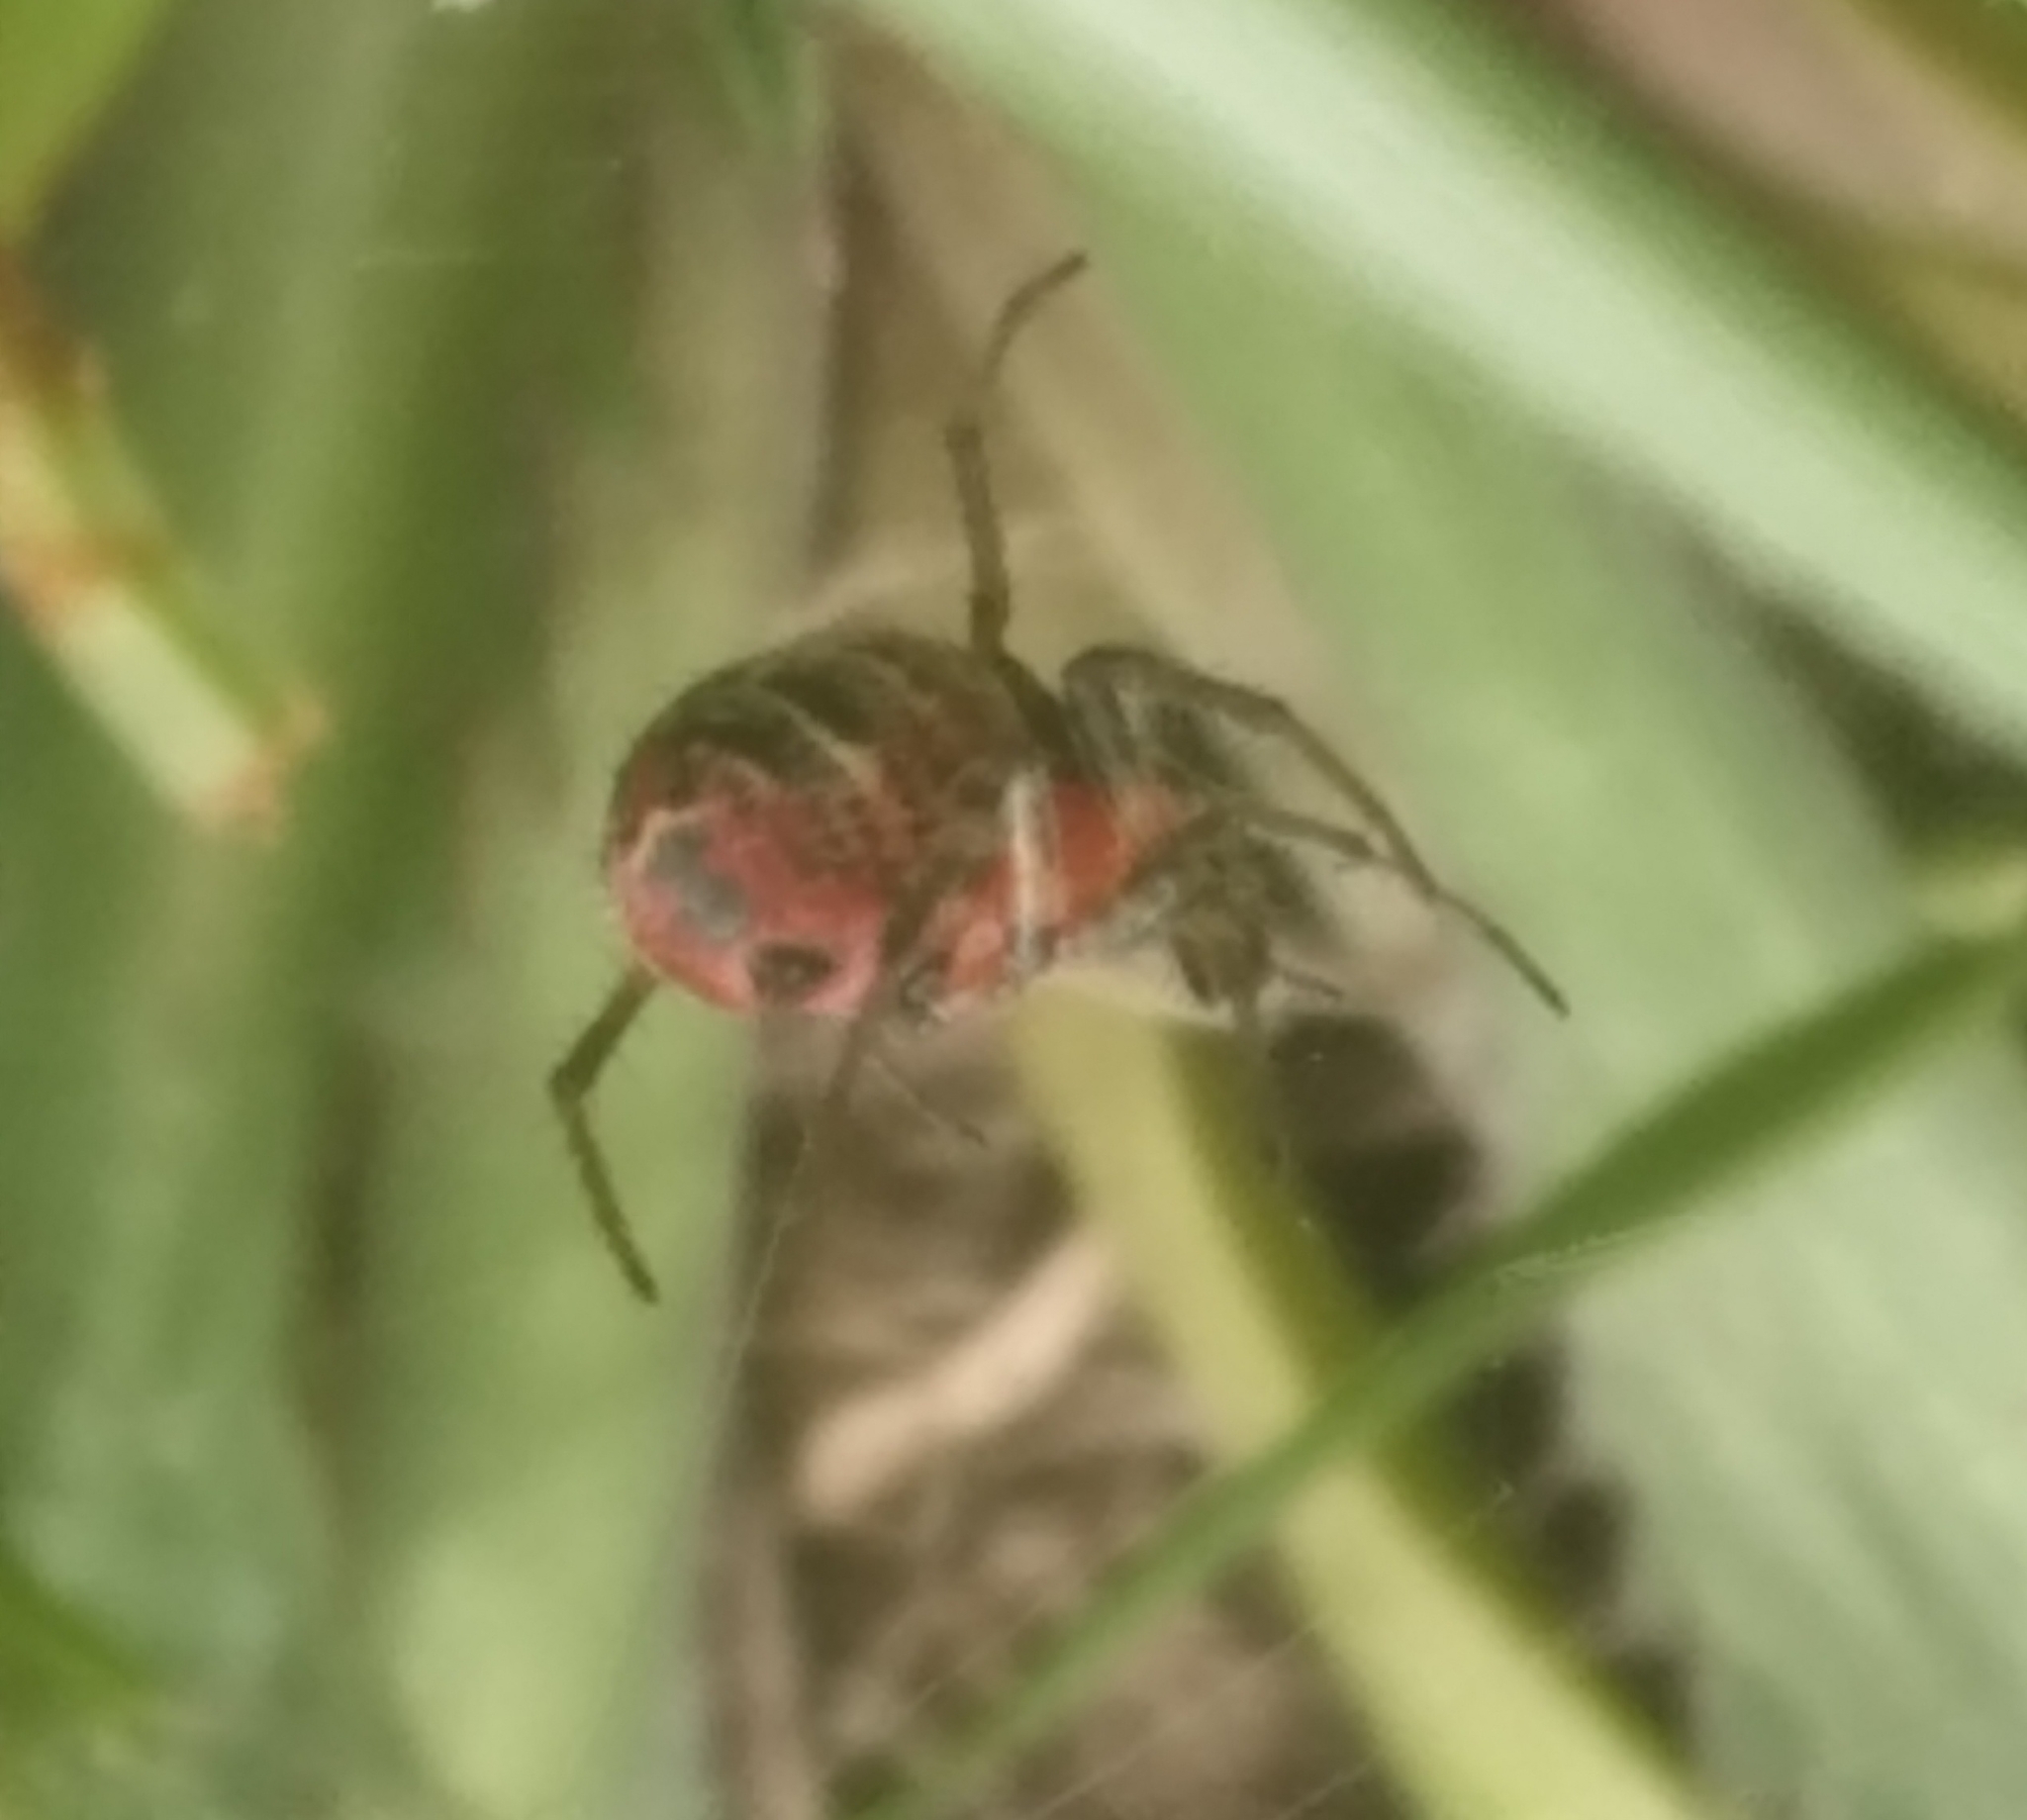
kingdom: Animalia
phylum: Arthropoda
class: Arachnida
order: Araneae
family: Araneidae
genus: Alpaida
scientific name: Alpaida versicolor
